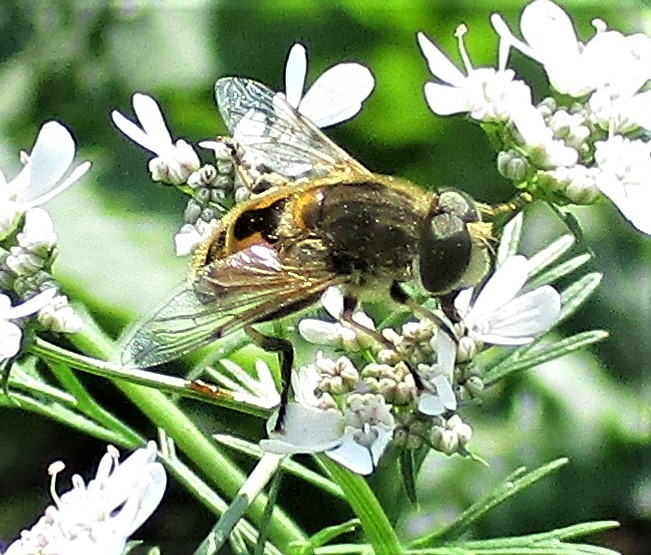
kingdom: Animalia
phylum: Arthropoda
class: Insecta
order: Diptera
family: Syrphidae
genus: Eristalis
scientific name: Eristalis arbustorum
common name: Hover fly
